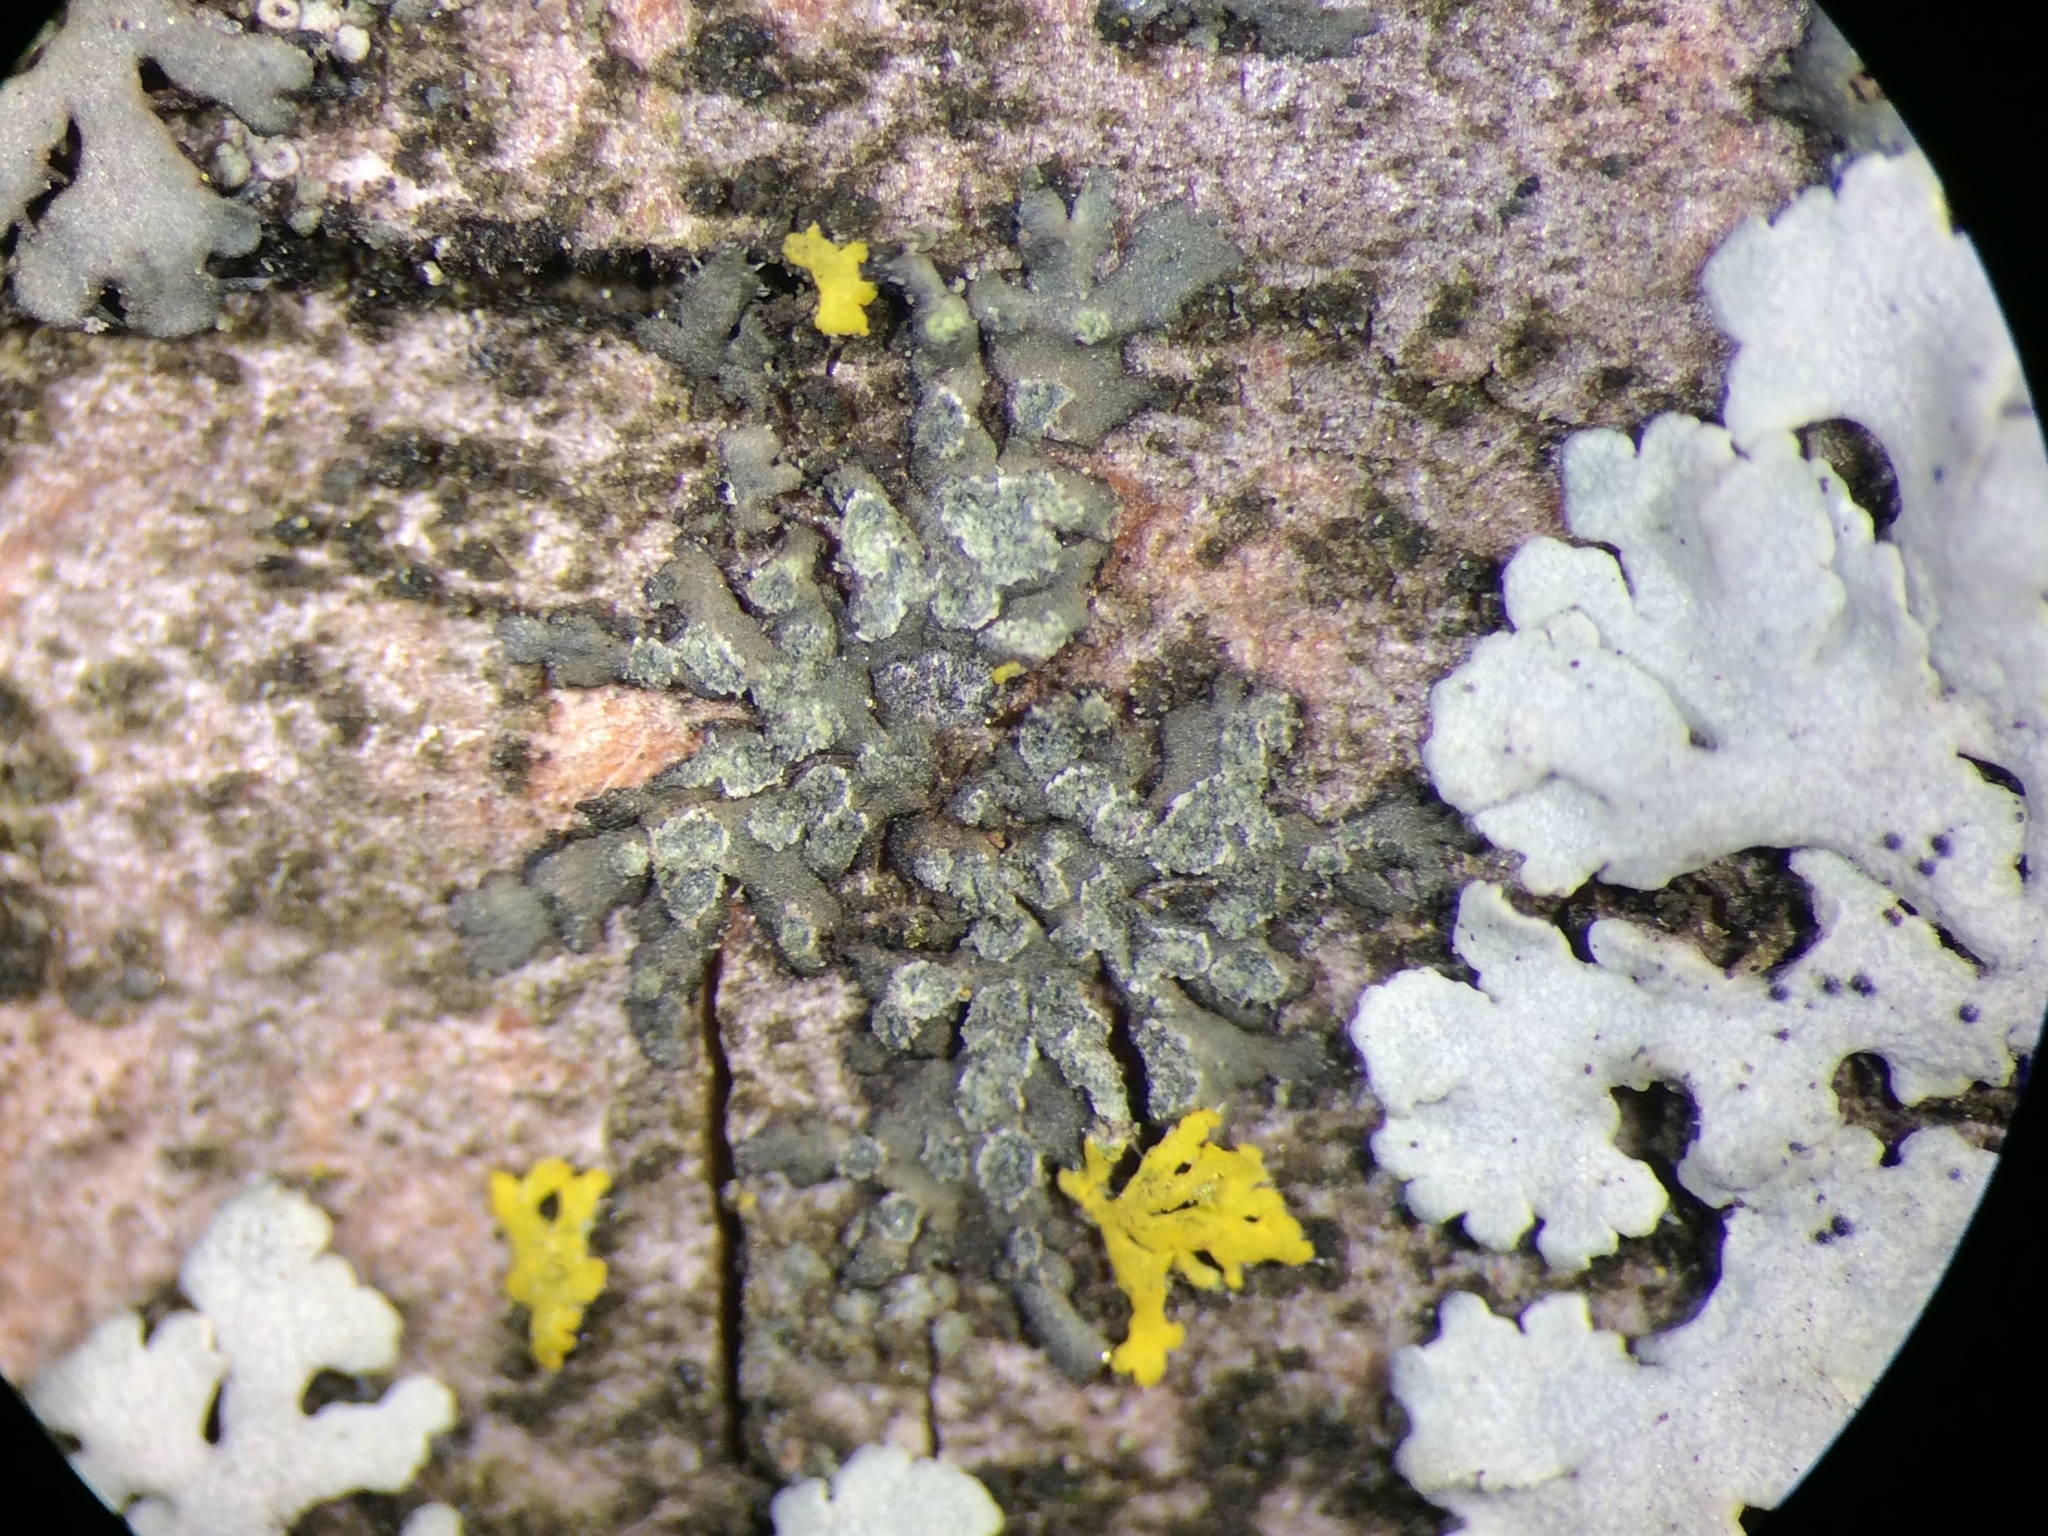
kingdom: Fungi
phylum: Ascomycota
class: Lecanoromycetes
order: Caliciales
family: Physciaceae
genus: Hyperphyscia
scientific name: Hyperphyscia adglutinata
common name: Grainy shadow-crust lichen
